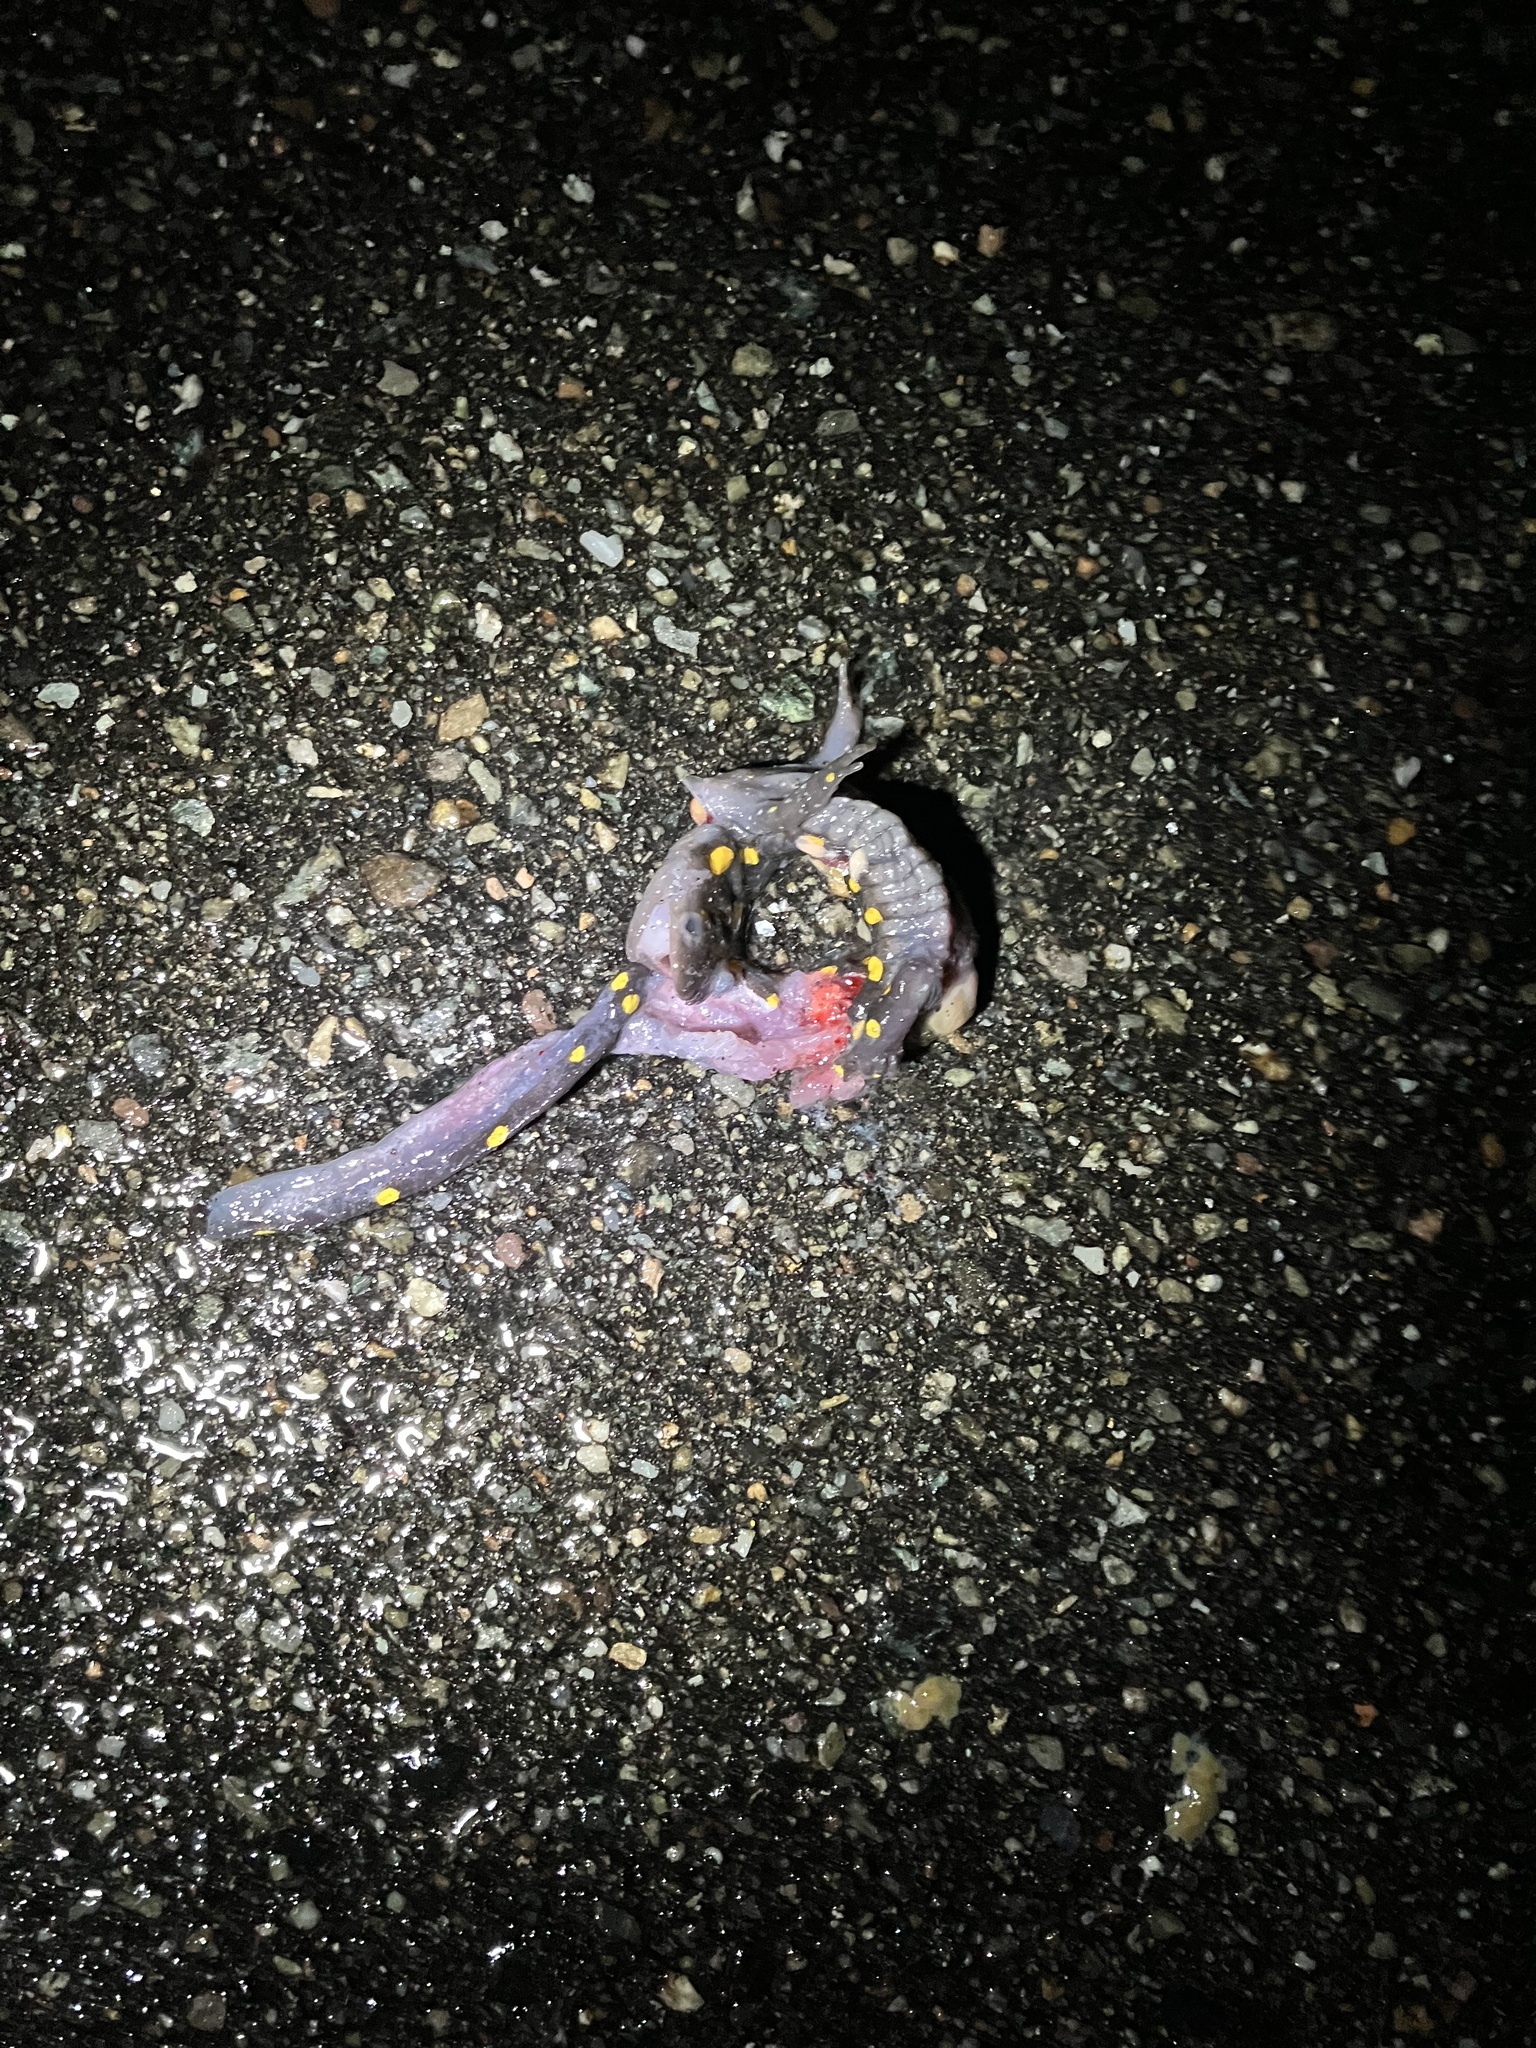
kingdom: Animalia
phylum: Chordata
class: Amphibia
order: Caudata
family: Ambystomatidae
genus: Ambystoma
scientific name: Ambystoma maculatum
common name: Spotted salamander
